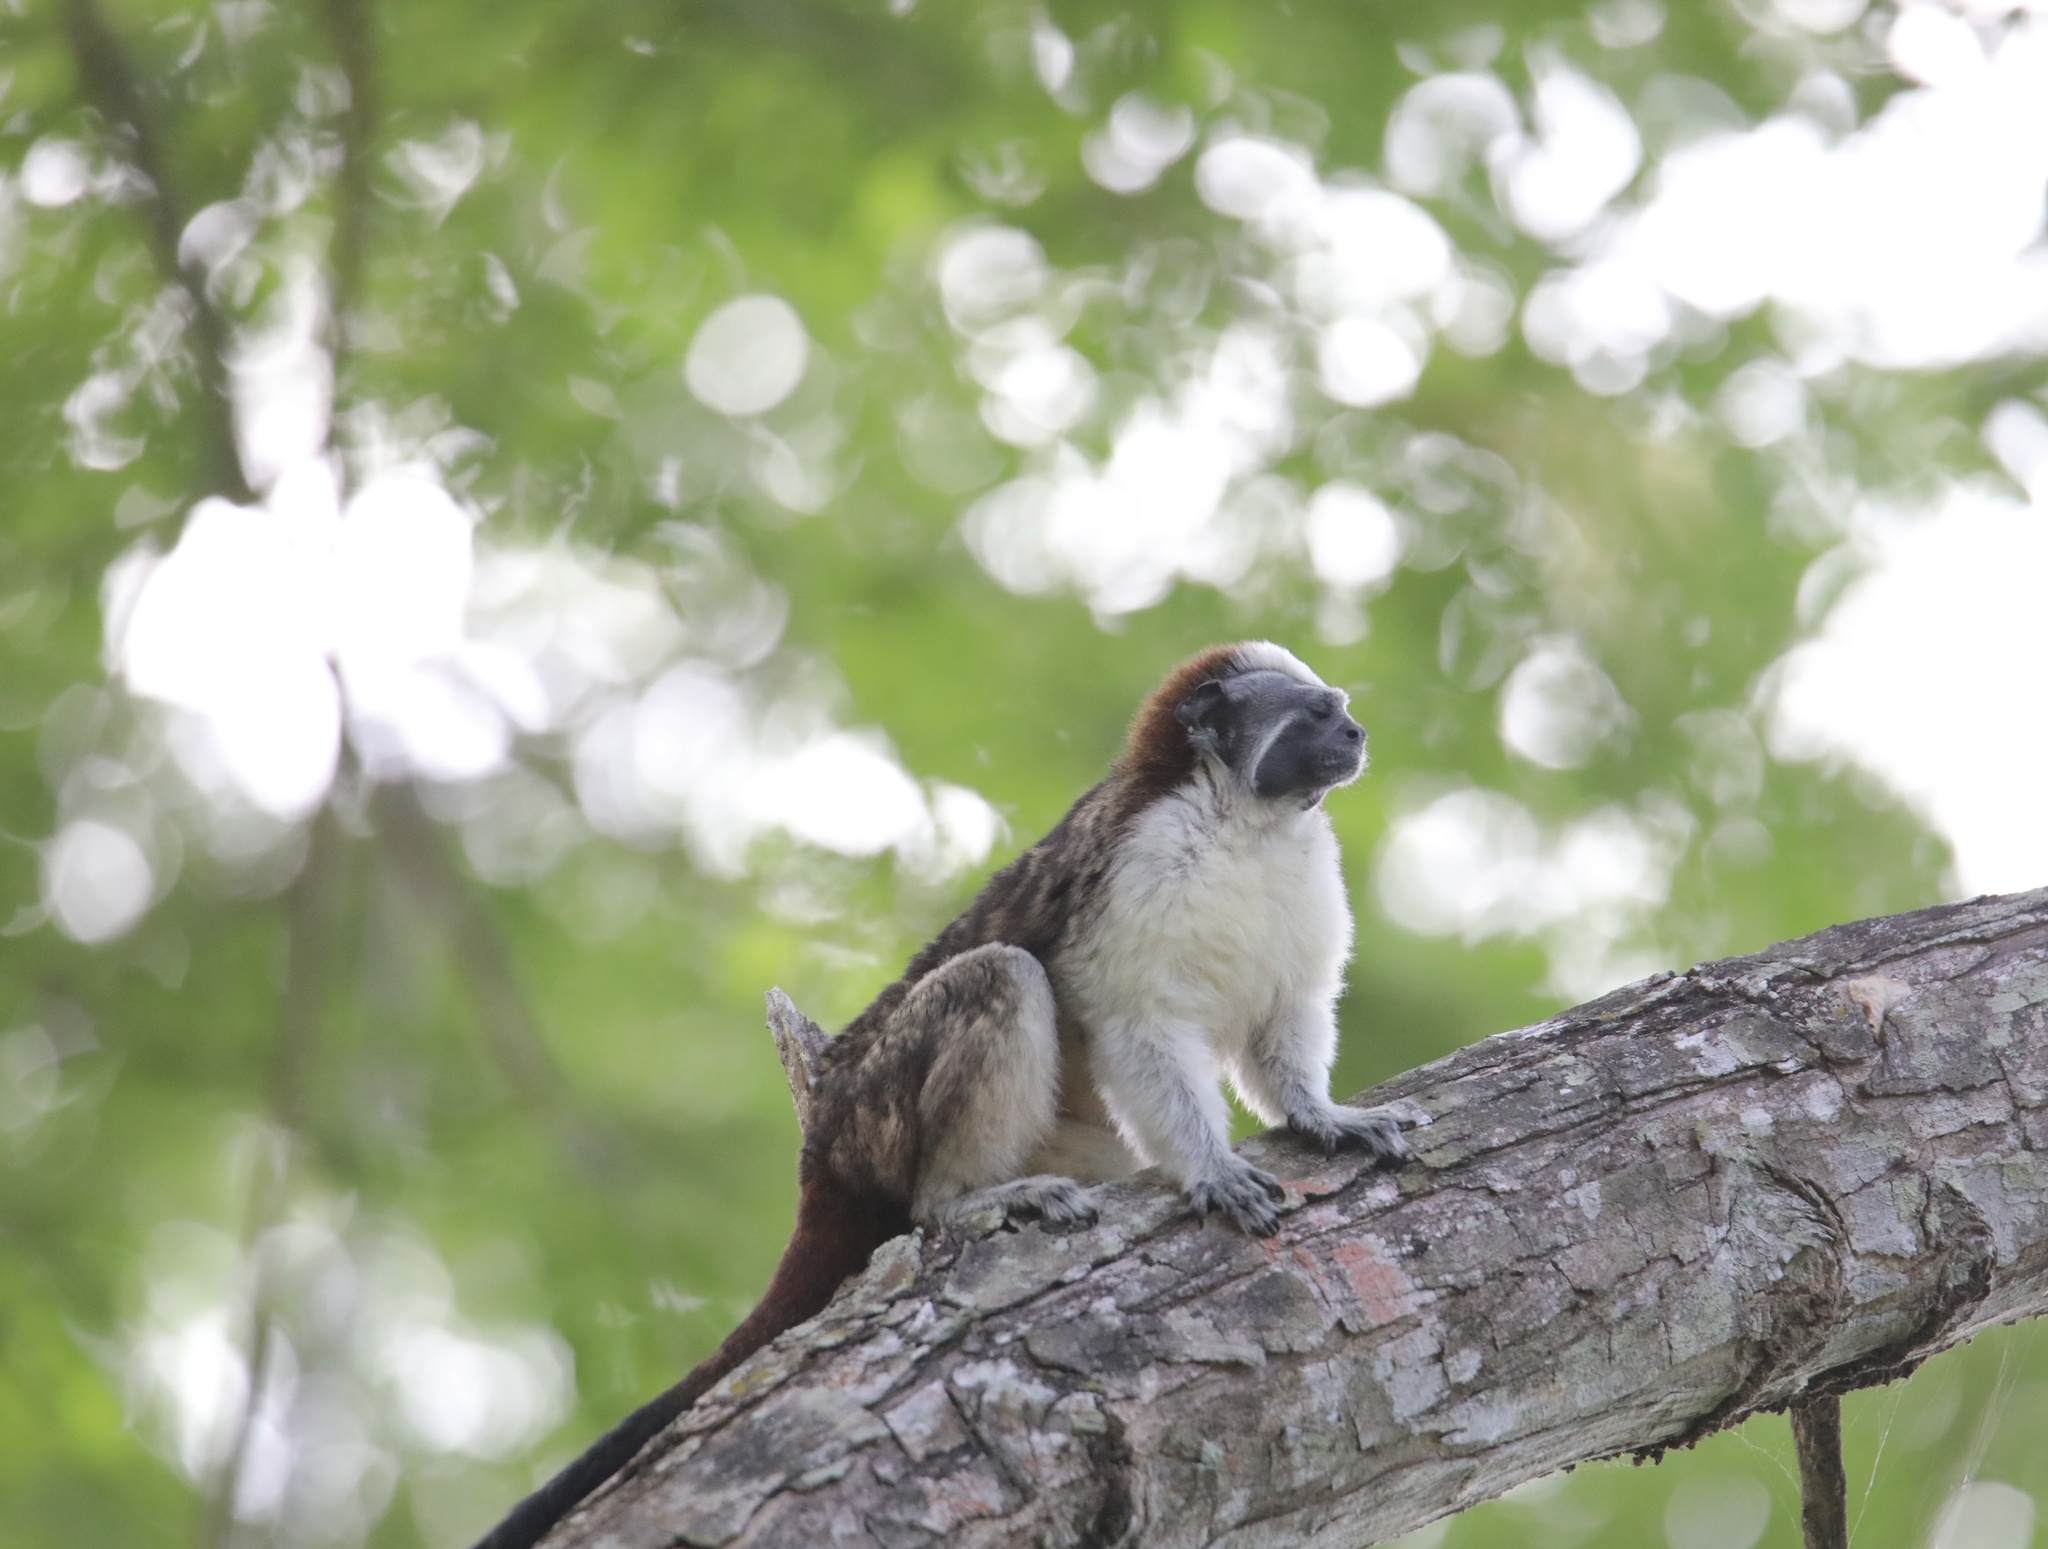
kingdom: Animalia
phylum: Chordata
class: Mammalia
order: Primates
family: Callitrichidae
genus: Saguinus
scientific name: Saguinus geoffroyi
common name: Geoffroy s tamarin
